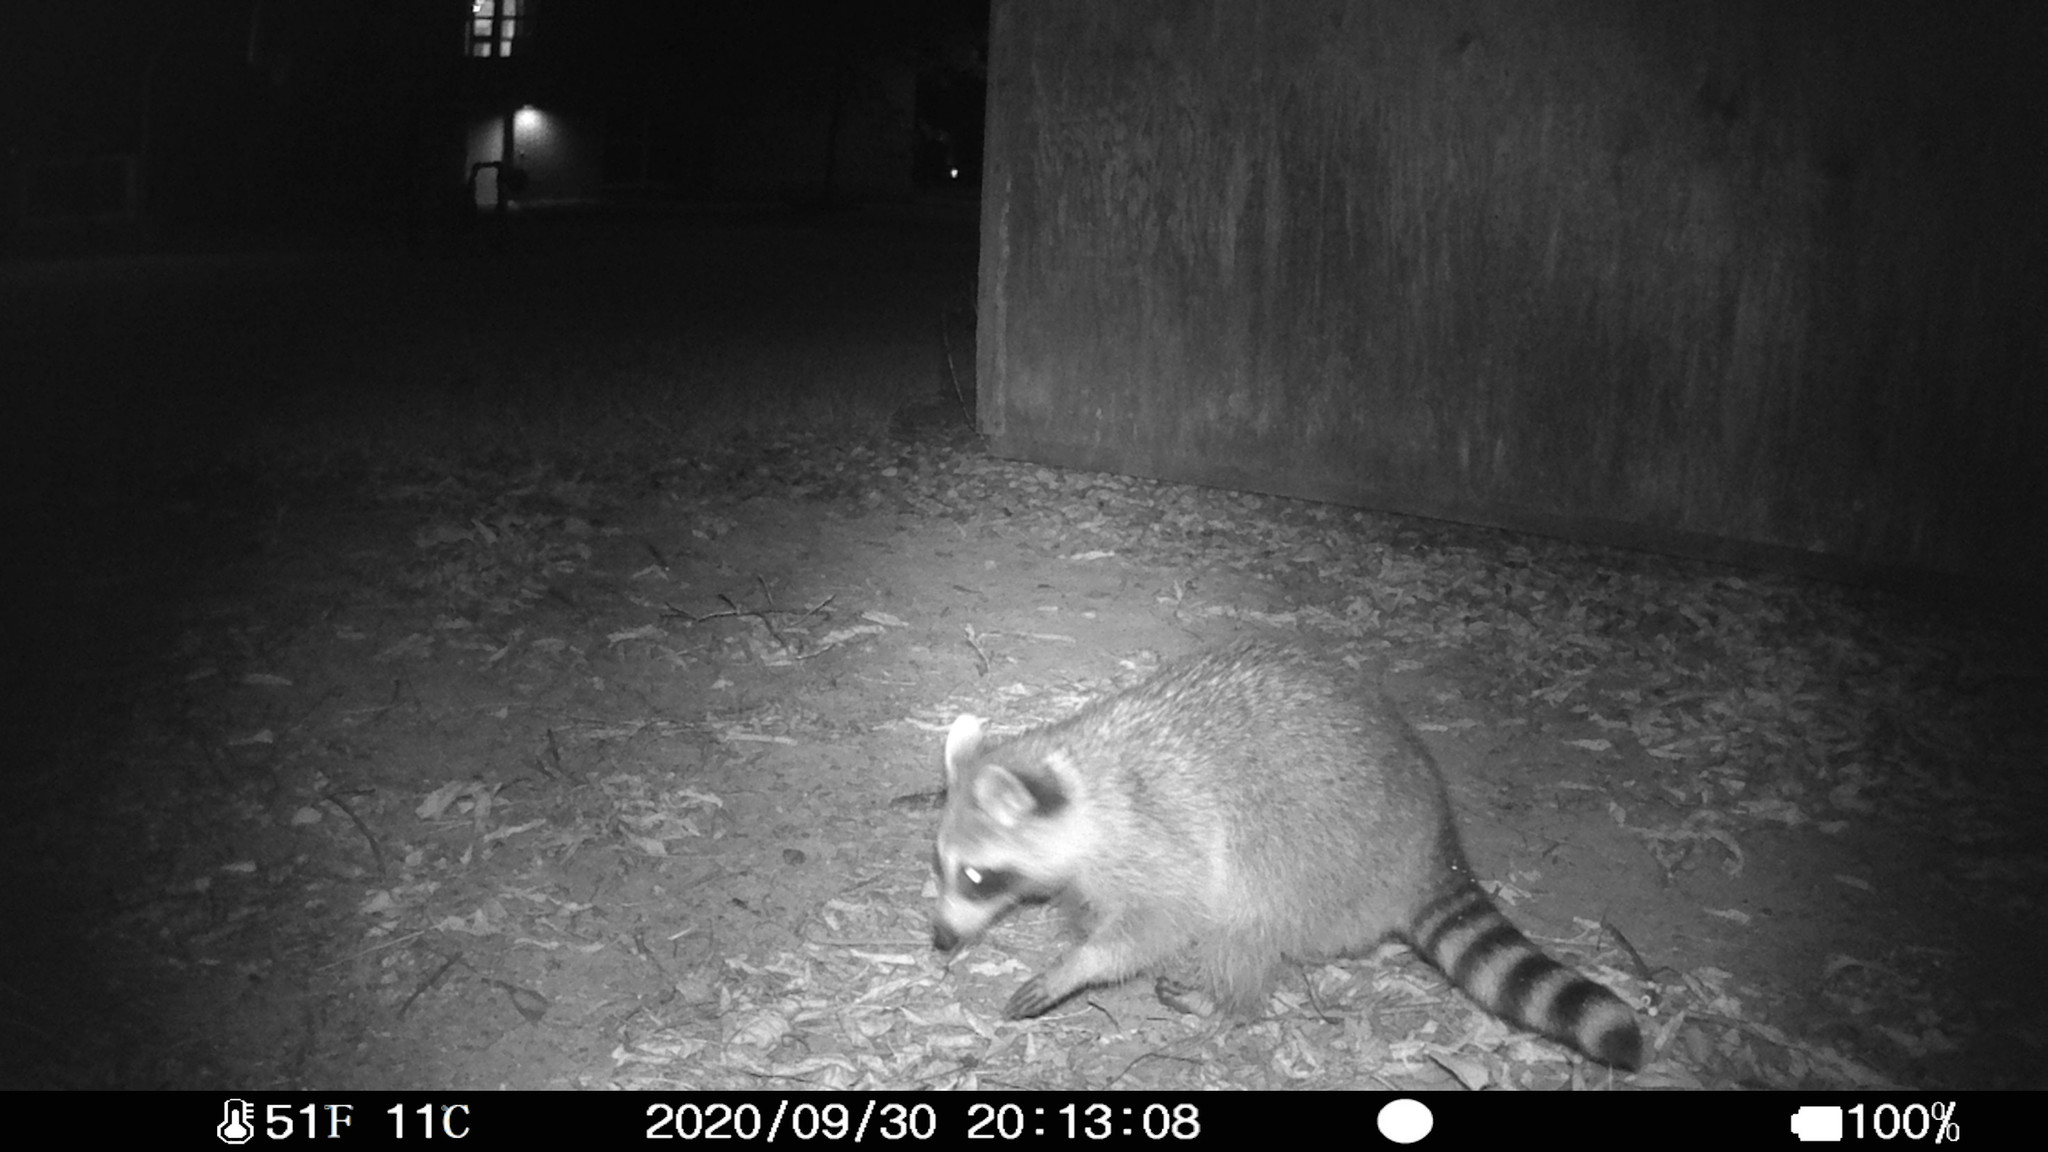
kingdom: Animalia
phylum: Chordata
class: Mammalia
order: Carnivora
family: Procyonidae
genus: Procyon
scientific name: Procyon lotor
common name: Raccoon
